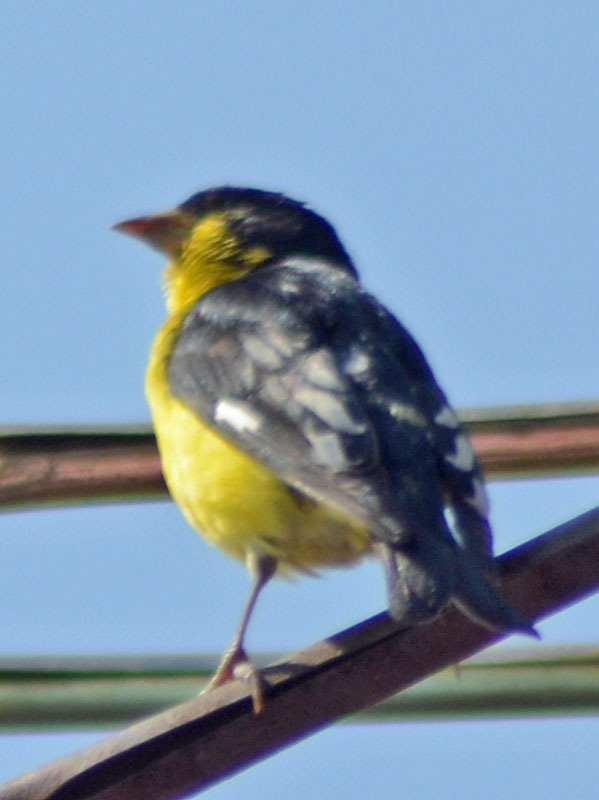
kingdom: Animalia
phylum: Chordata
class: Aves
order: Passeriformes
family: Fringillidae
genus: Spinus
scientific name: Spinus psaltria
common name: Lesser goldfinch
